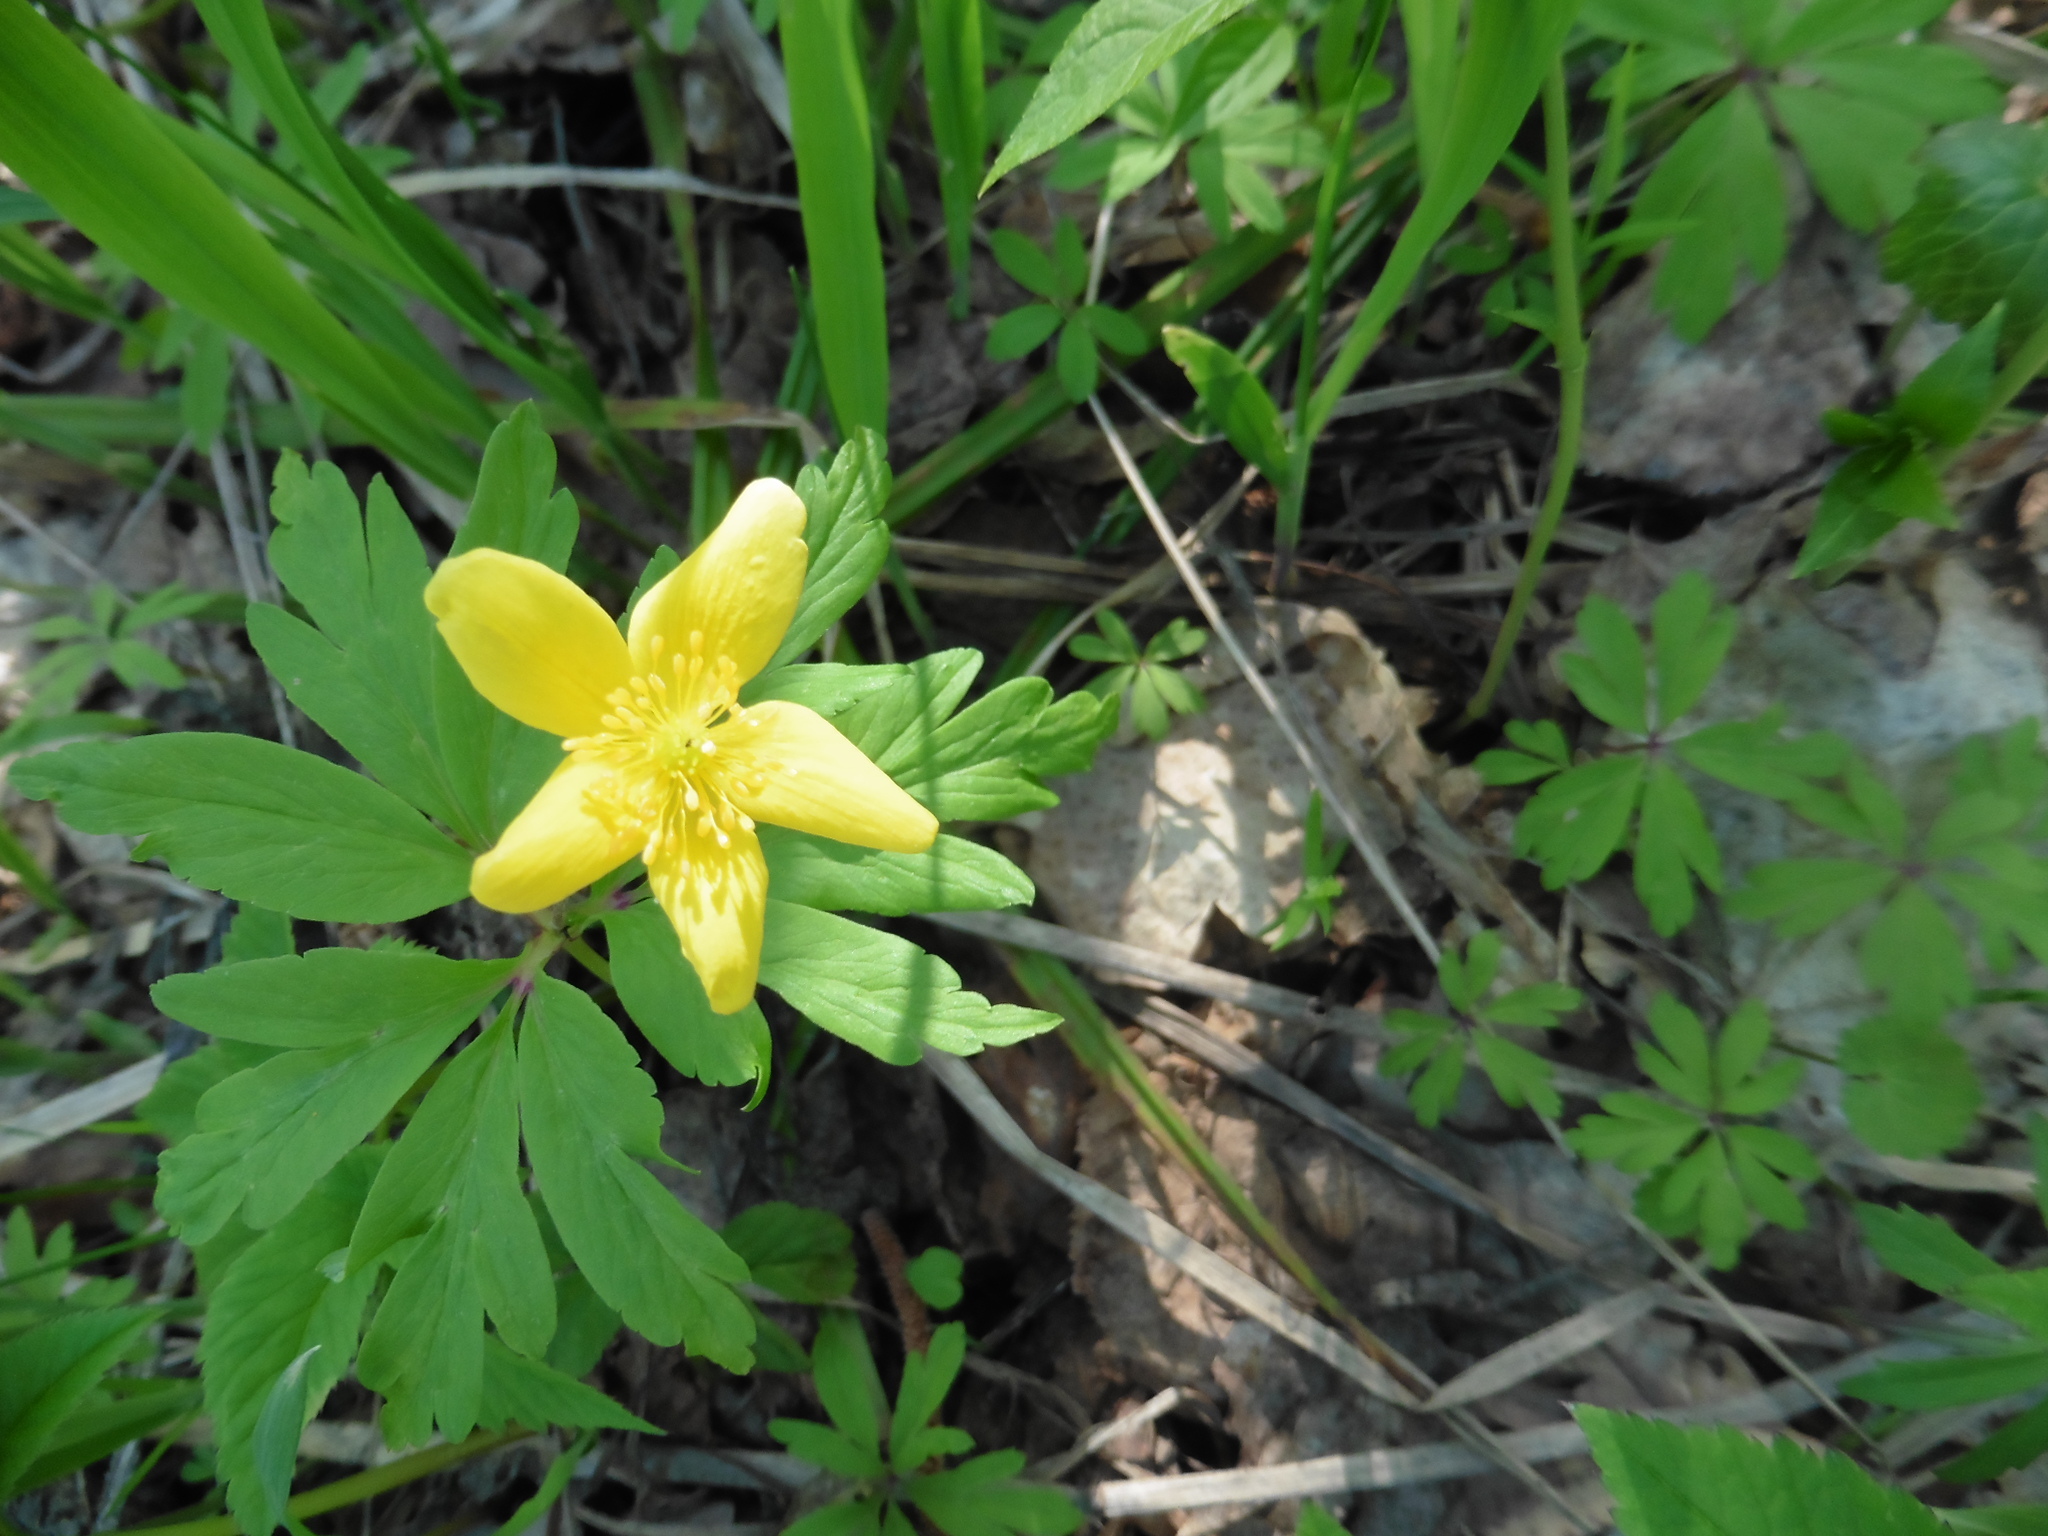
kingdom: Plantae
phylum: Tracheophyta
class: Magnoliopsida
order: Ranunculales
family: Ranunculaceae
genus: Anemone
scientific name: Anemone ranunculoides
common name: Yellow anemone
